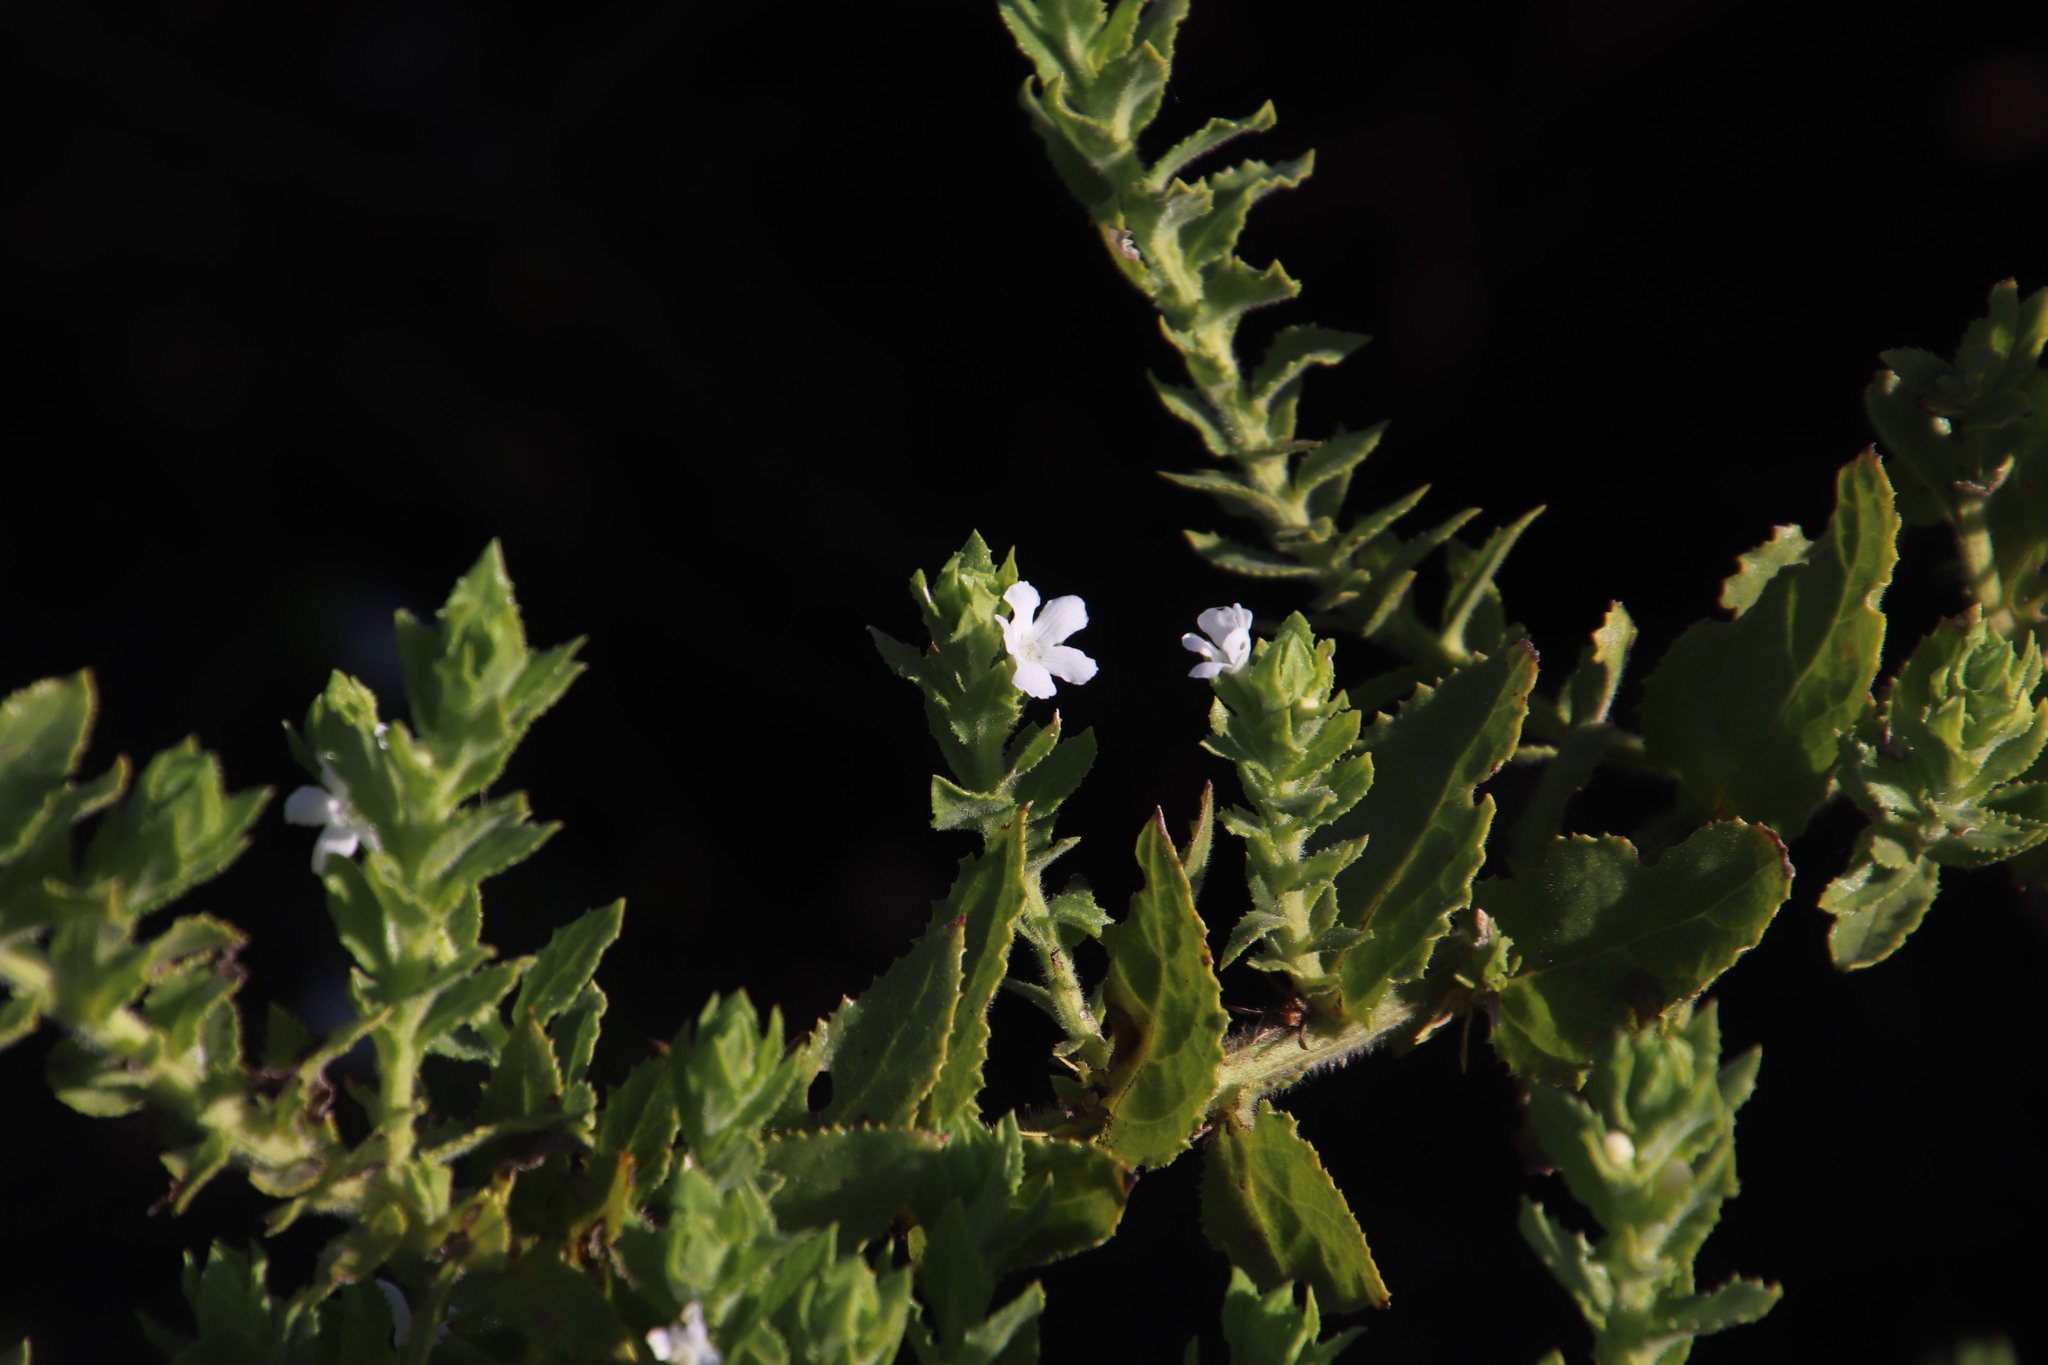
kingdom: Plantae
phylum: Tracheophyta
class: Magnoliopsida
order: Lamiales
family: Scrophulariaceae
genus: Oftia
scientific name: Oftia africana
